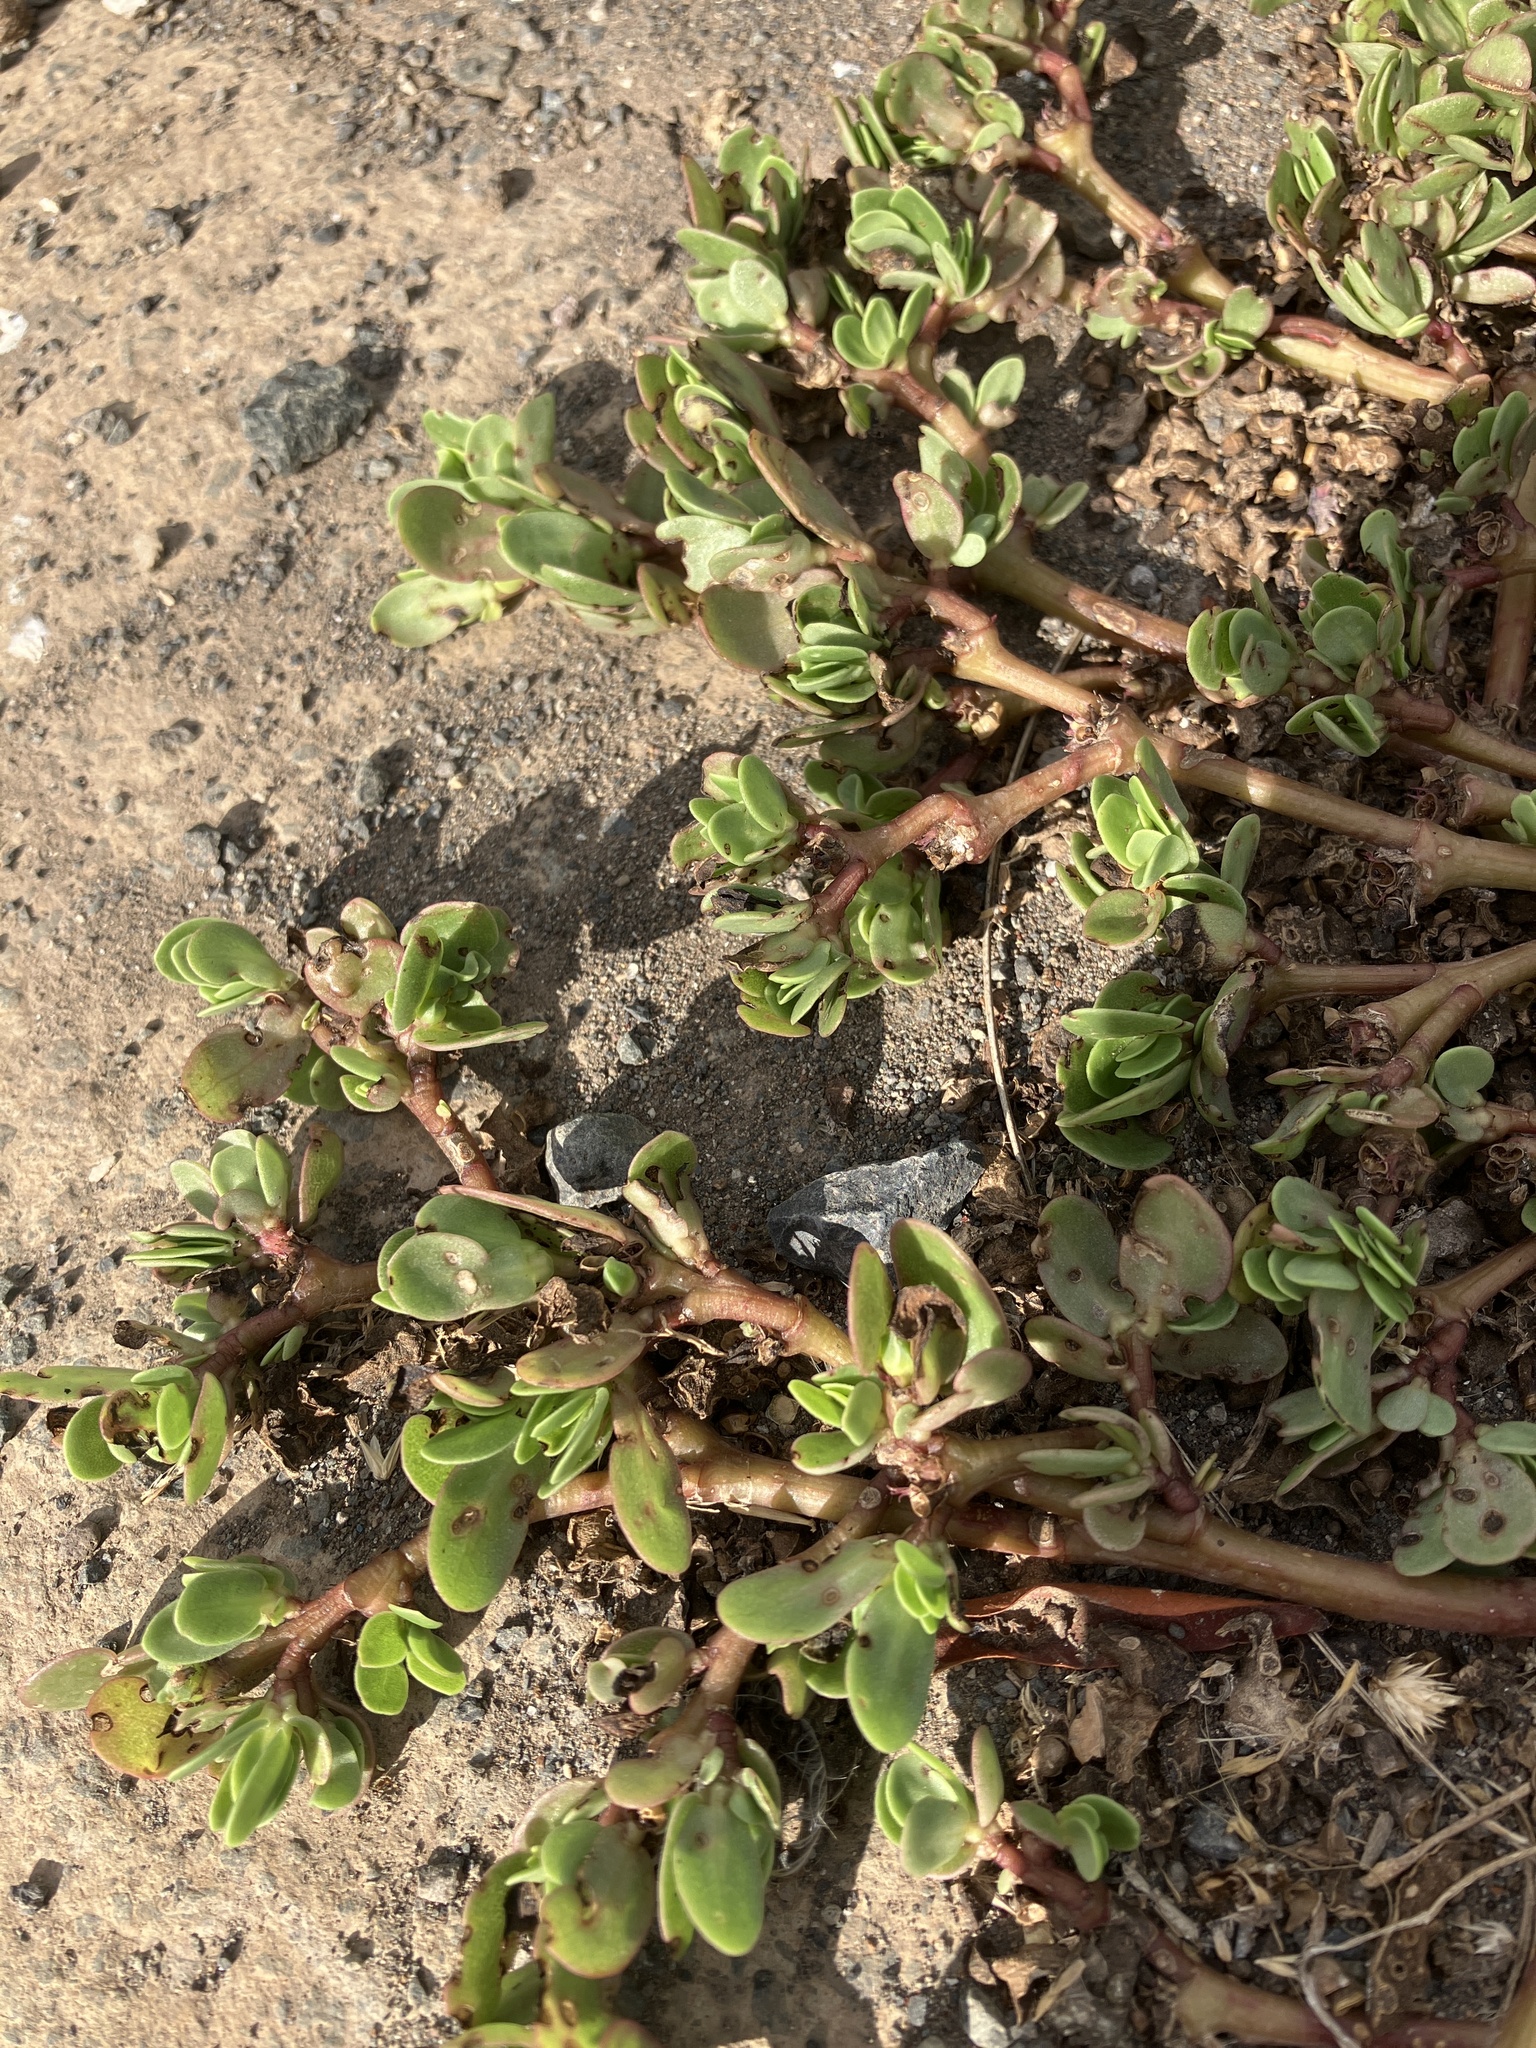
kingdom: Plantae
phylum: Tracheophyta
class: Magnoliopsida
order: Caryophyllales
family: Portulacaceae
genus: Portulaca
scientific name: Portulaca oleracea
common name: Common purslane
